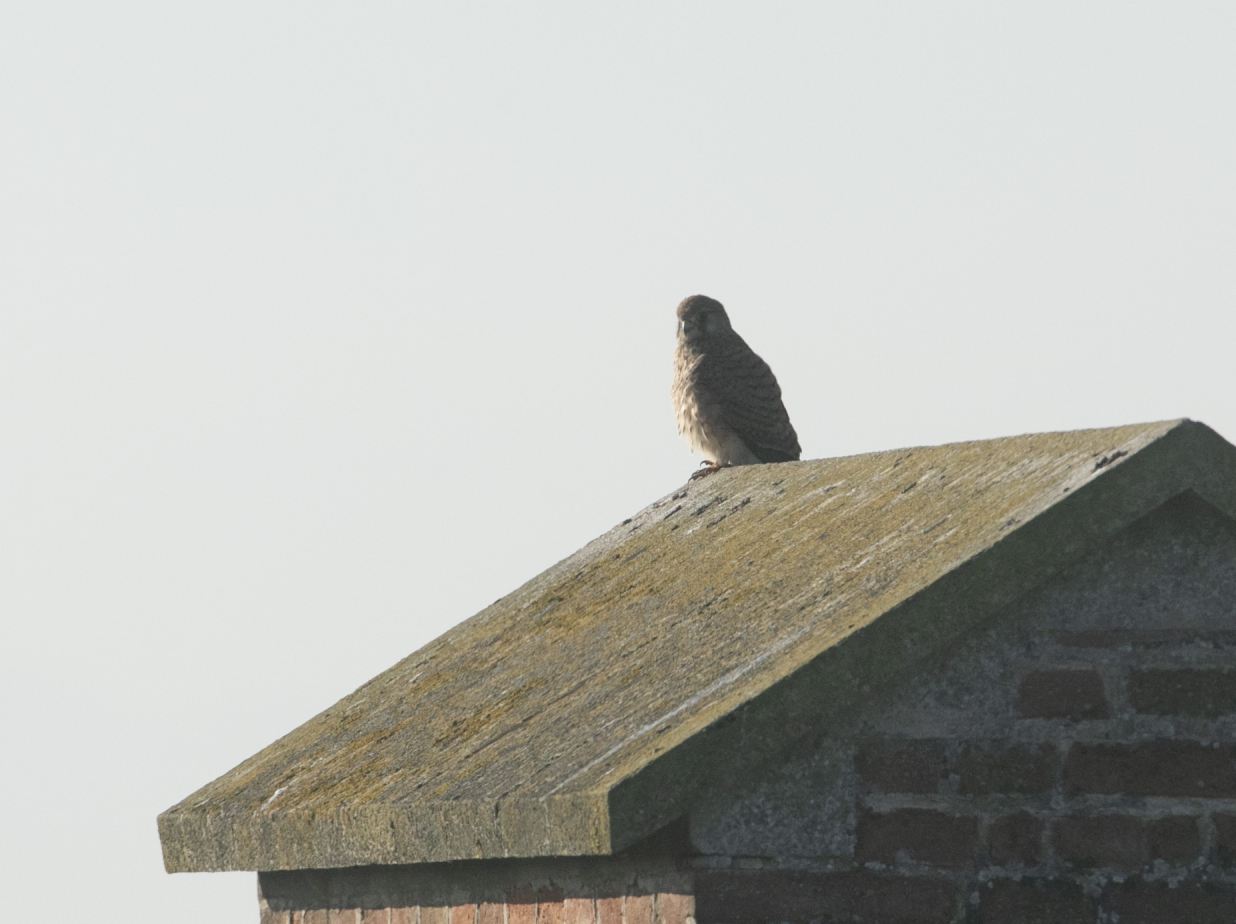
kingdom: Animalia
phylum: Chordata
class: Aves
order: Falconiformes
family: Falconidae
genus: Falco
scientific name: Falco tinnunculus
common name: Common kestrel
